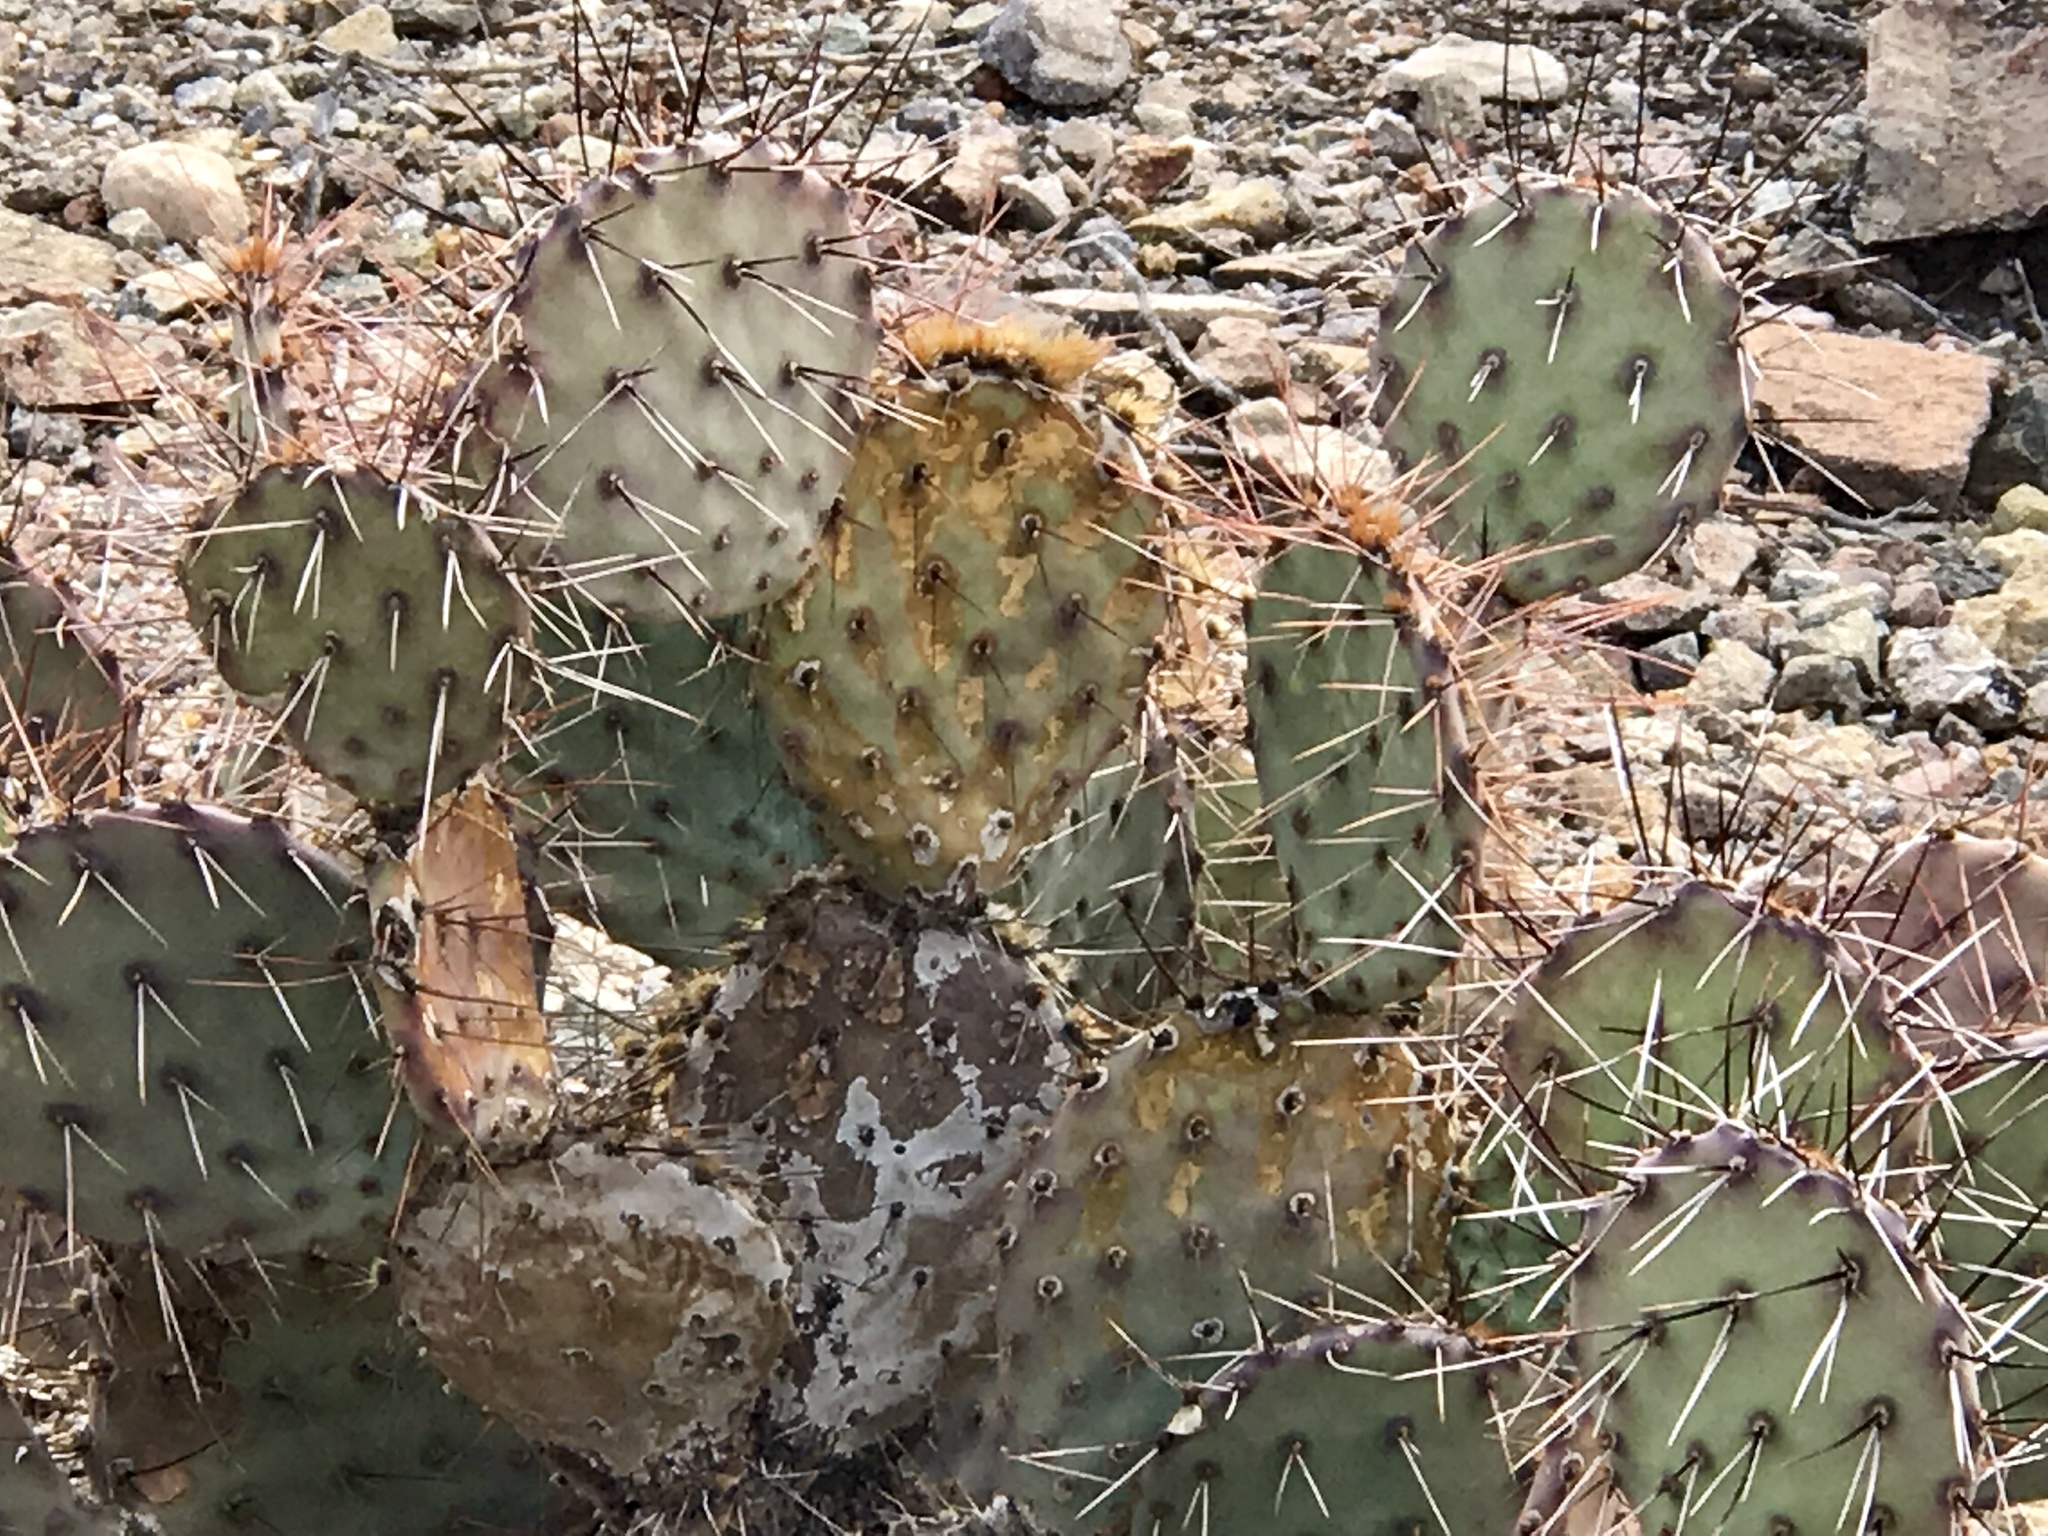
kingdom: Plantae
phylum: Tracheophyta
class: Magnoliopsida
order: Caryophyllales
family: Cactaceae
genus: Opuntia
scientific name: Opuntia phaeacantha
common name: New mexico prickly-pear
